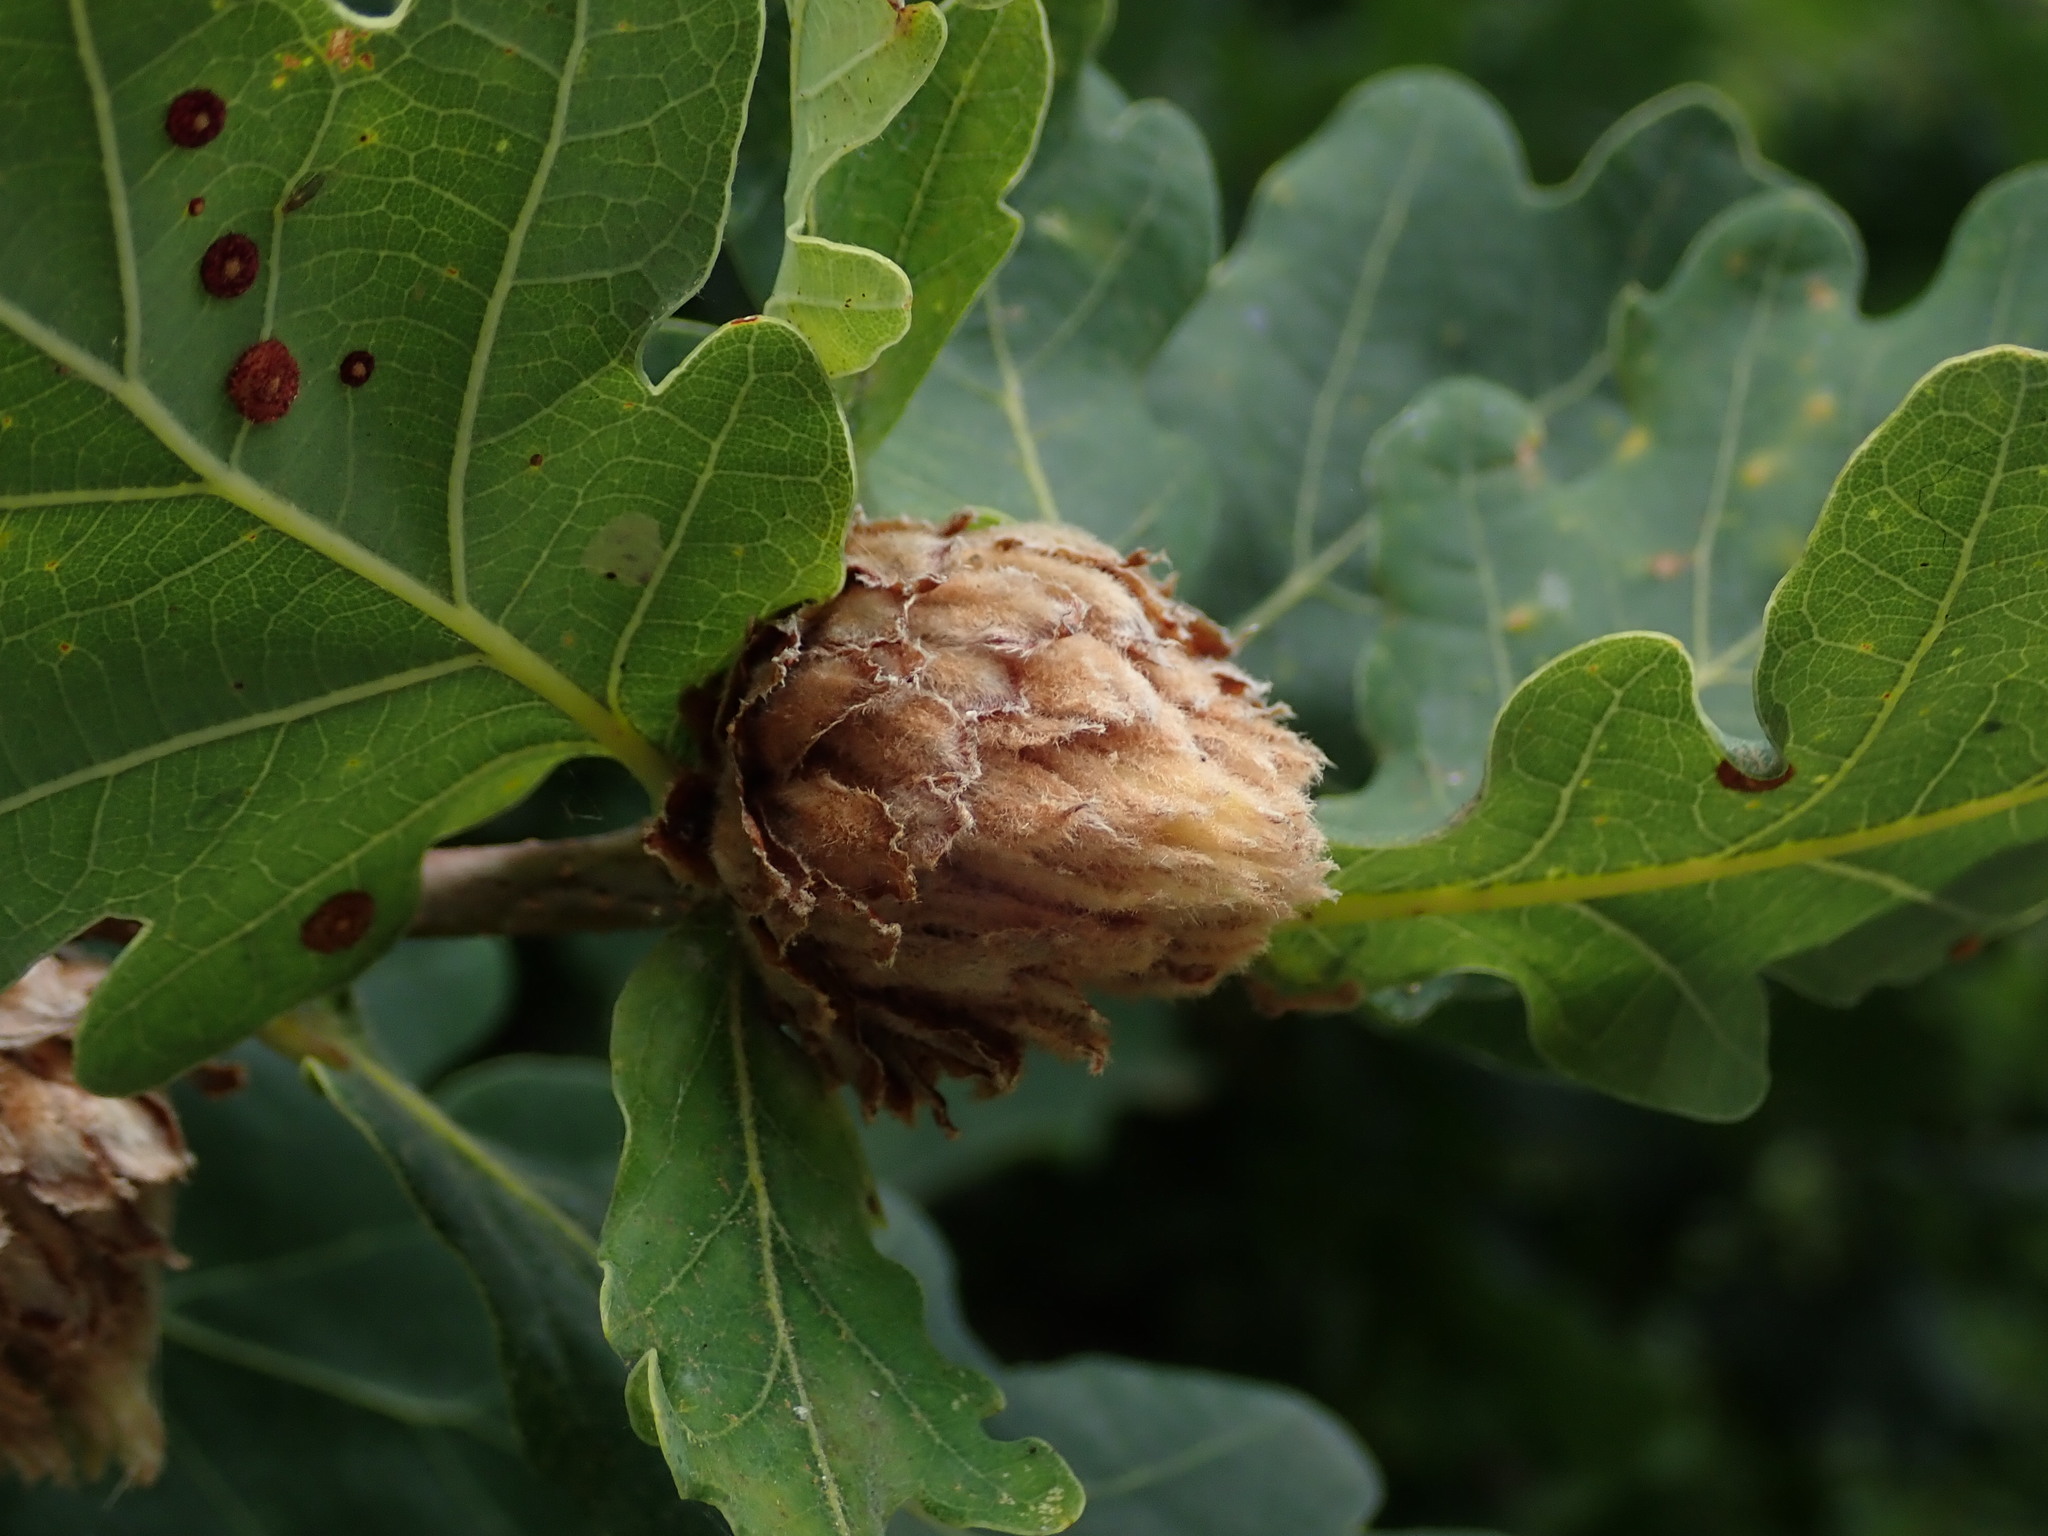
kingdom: Animalia
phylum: Arthropoda
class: Insecta
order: Hymenoptera
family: Cynipidae
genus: Andricus
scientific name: Andricus foecundatrix
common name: Artichoke gall
